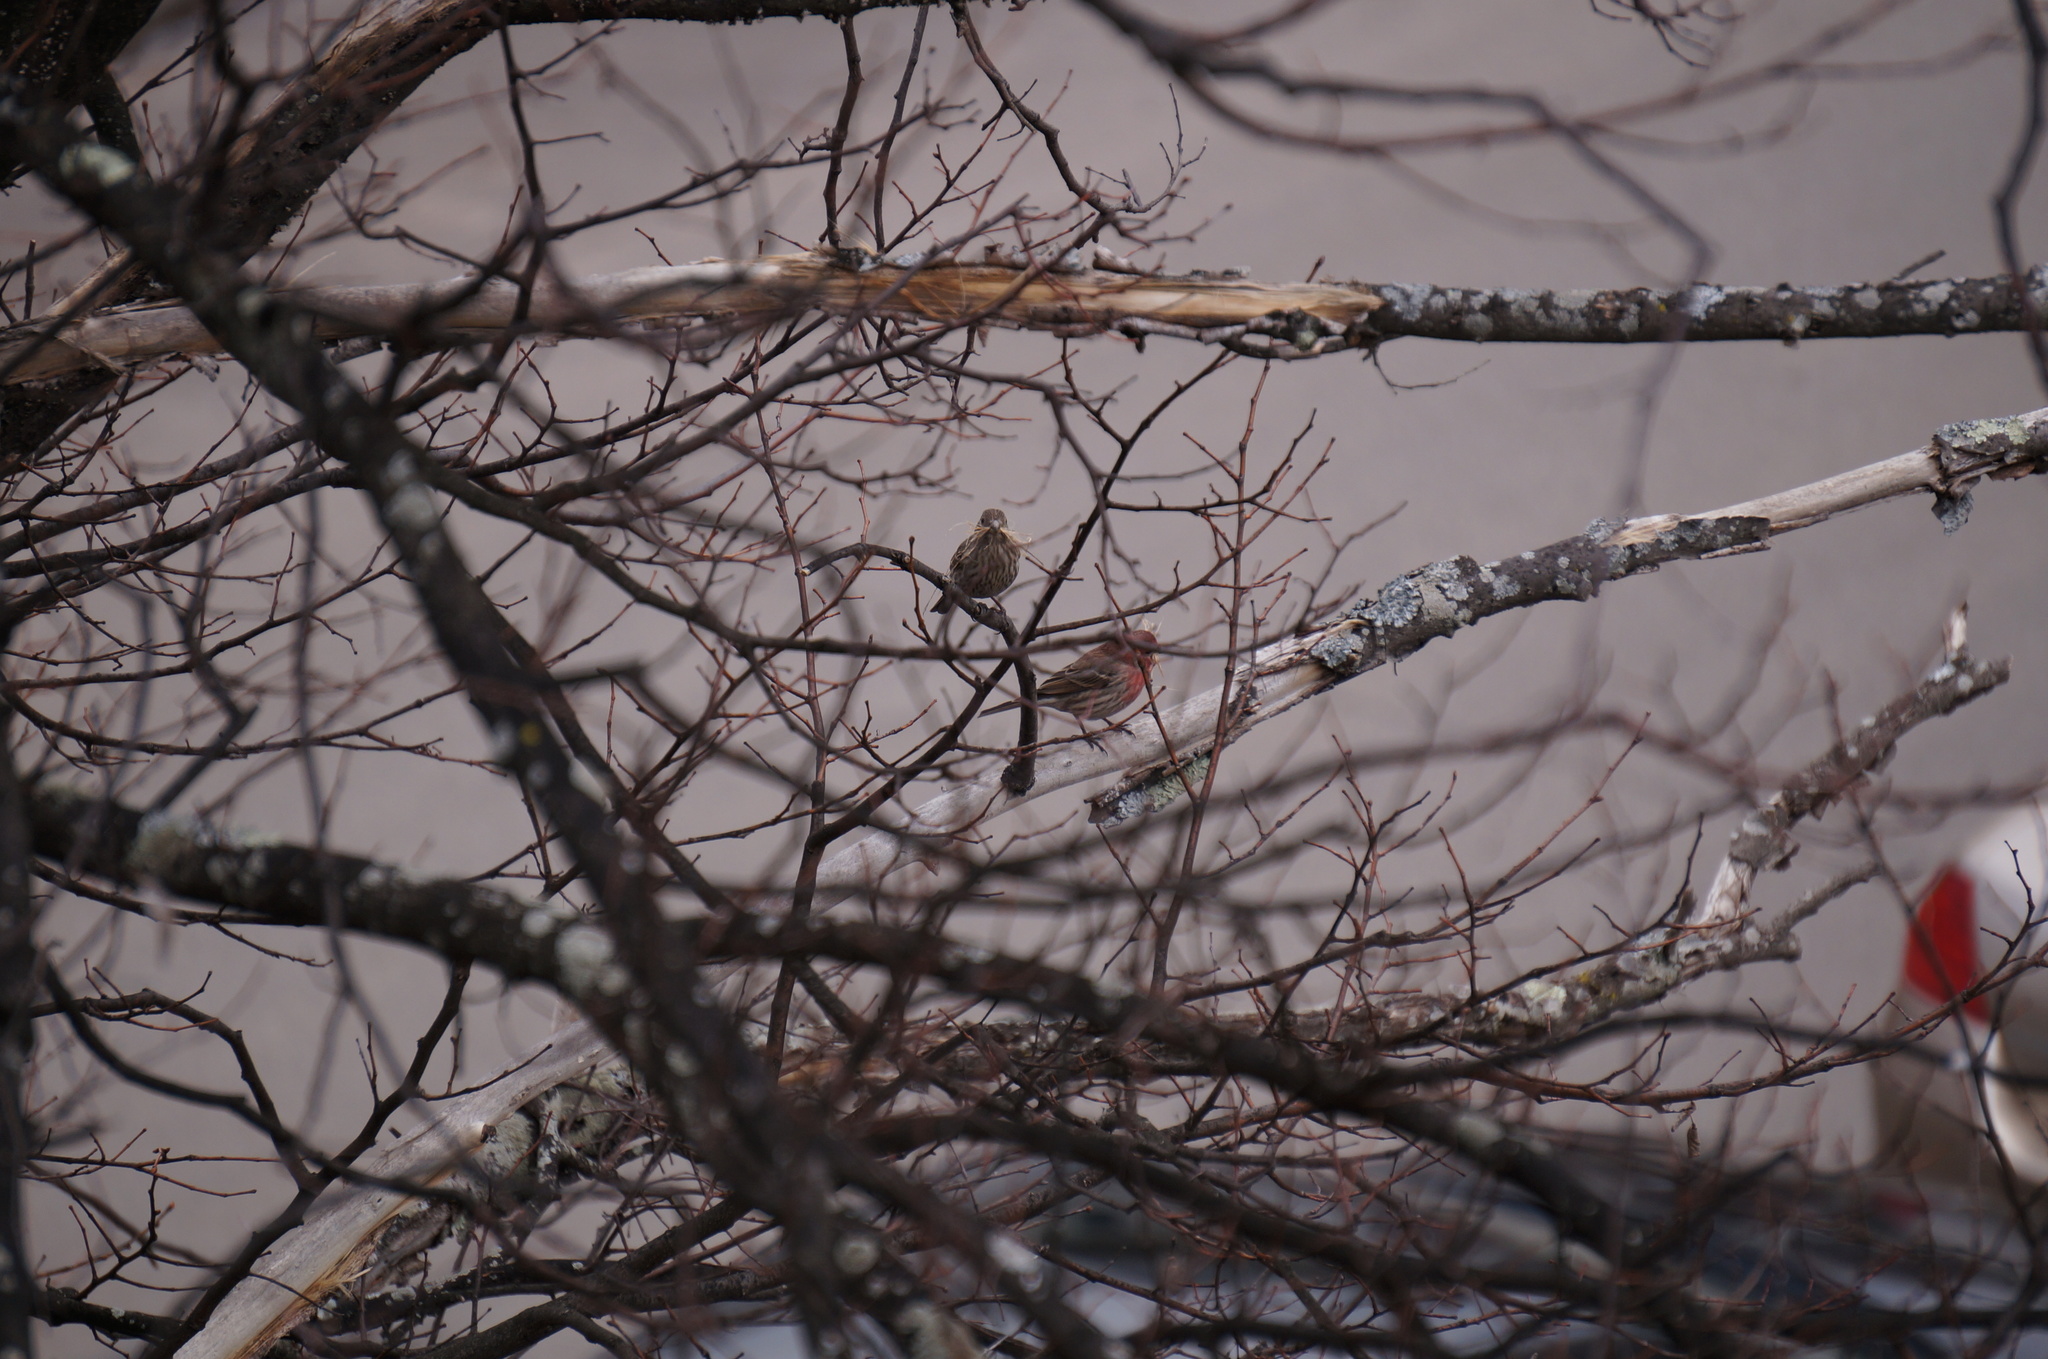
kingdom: Animalia
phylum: Chordata
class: Aves
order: Passeriformes
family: Fringillidae
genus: Haemorhous
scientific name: Haemorhous mexicanus
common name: House finch
